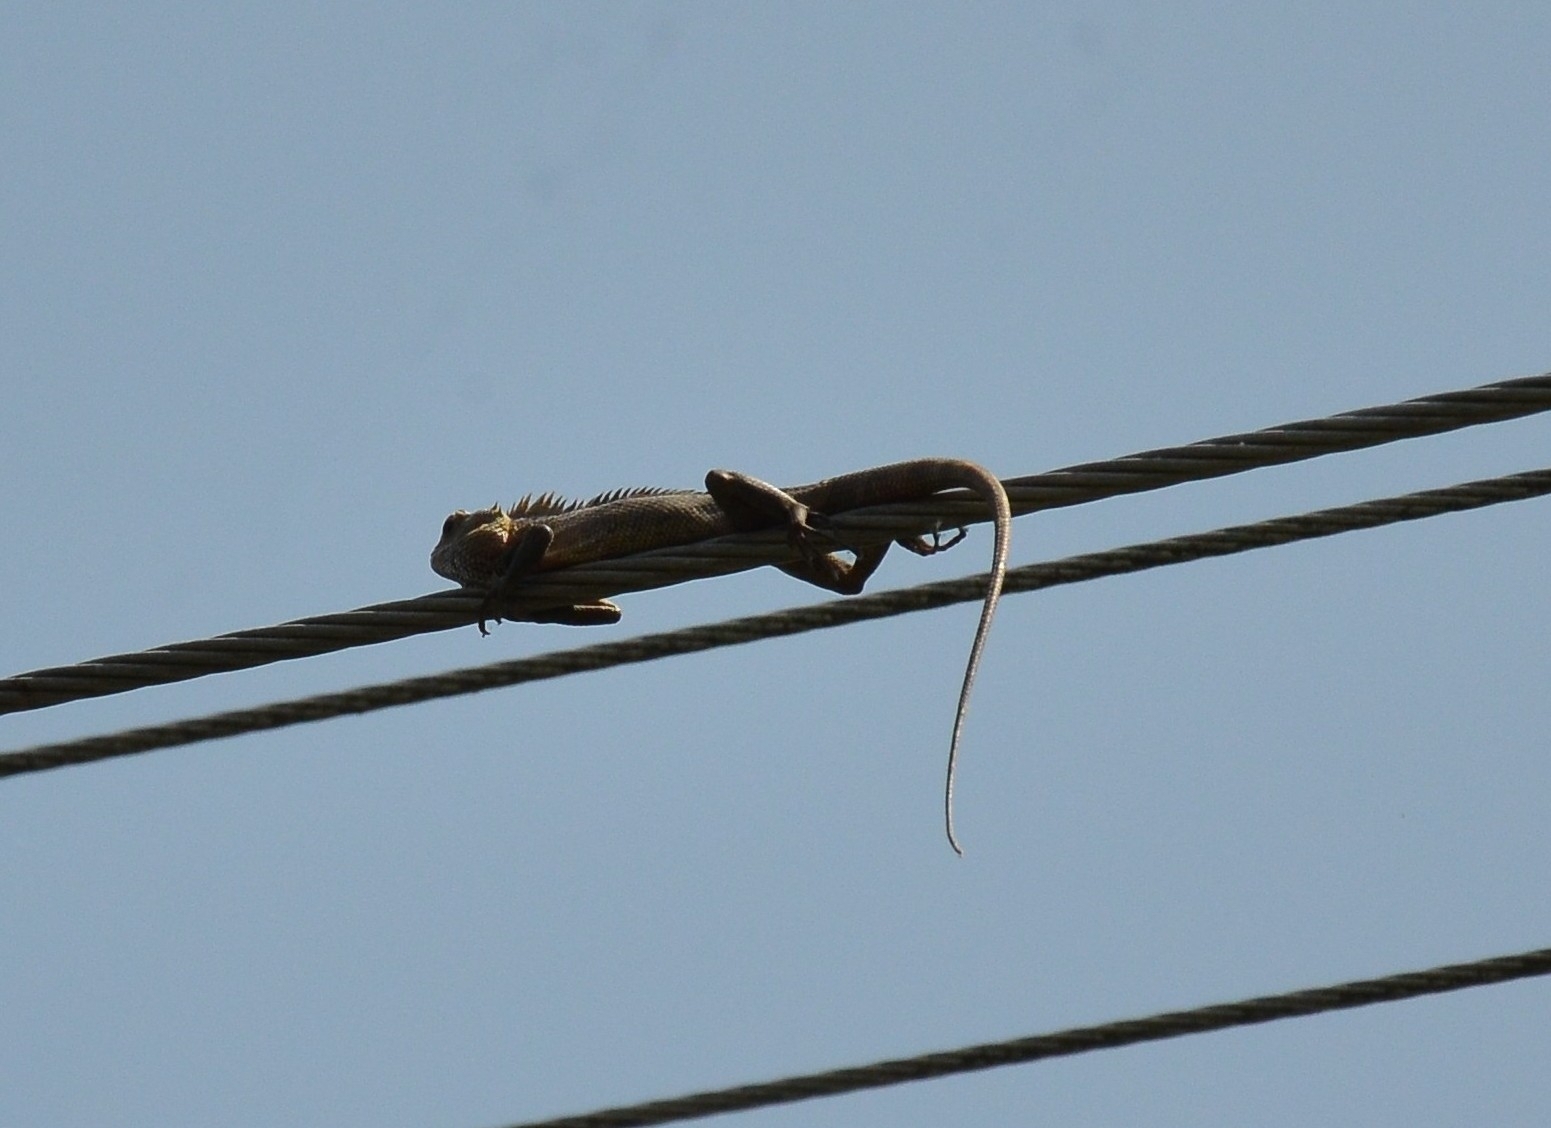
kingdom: Animalia
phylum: Chordata
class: Squamata
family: Agamidae
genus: Calotes
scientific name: Calotes versicolor
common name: Oriental garden lizard
